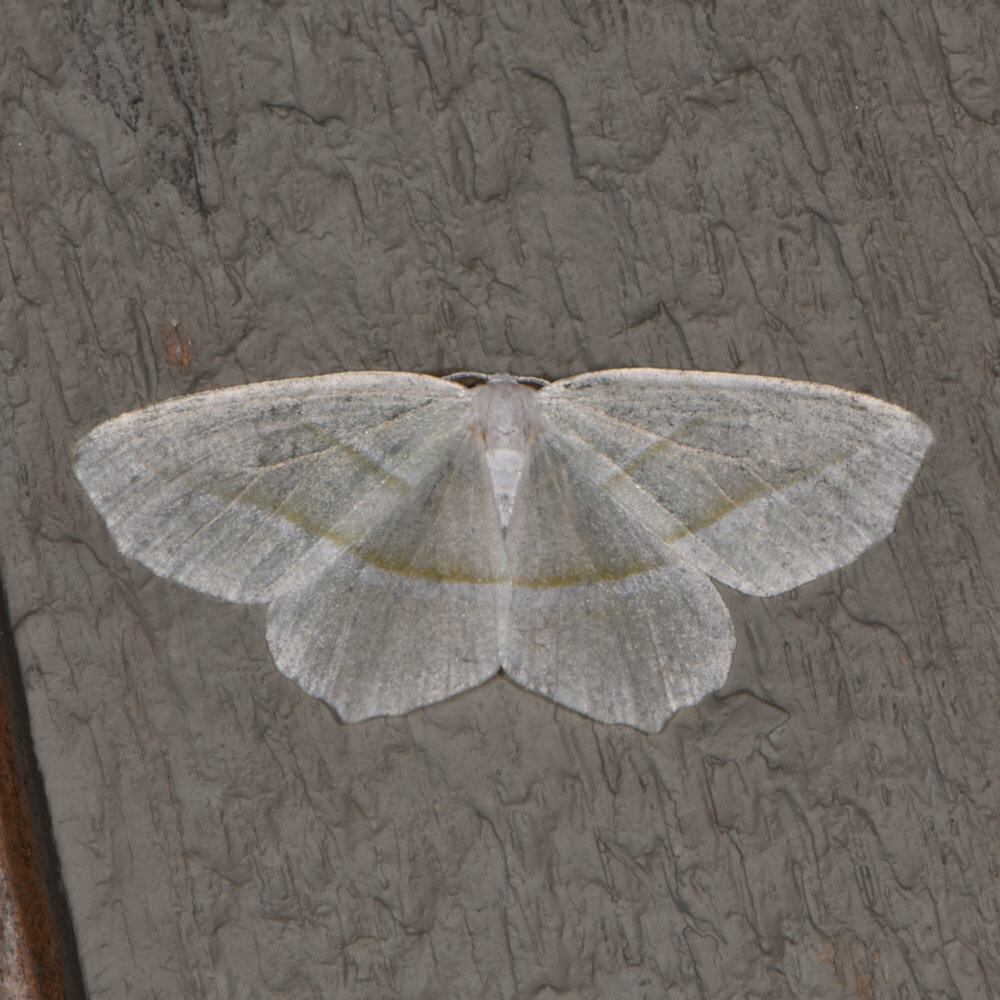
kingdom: Animalia
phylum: Arthropoda
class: Insecta
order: Lepidoptera
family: Geometridae
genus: Campaea
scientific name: Campaea perlata
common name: Fringed looper
